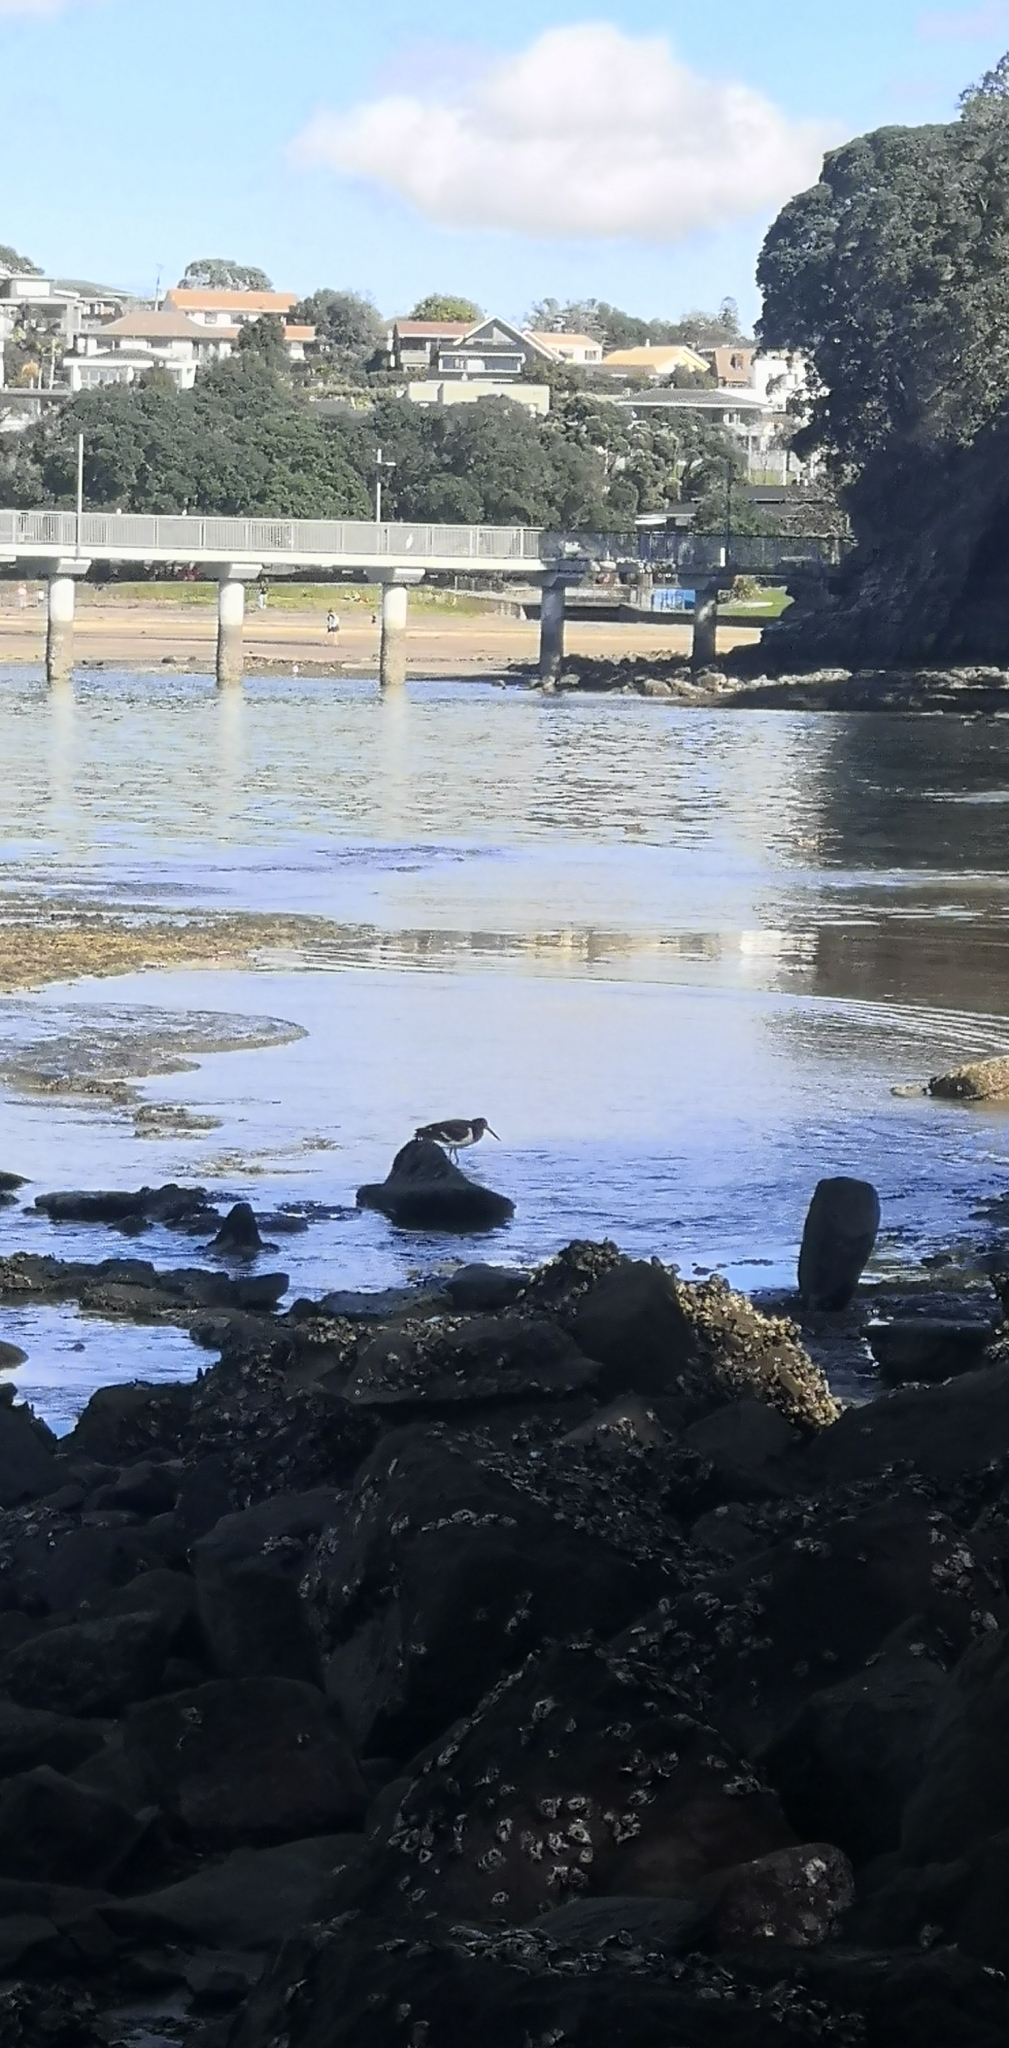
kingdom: Animalia
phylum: Chordata
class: Aves
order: Charadriiformes
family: Haematopodidae
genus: Haematopus
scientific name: Haematopus finschi
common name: South island oystercatcher
